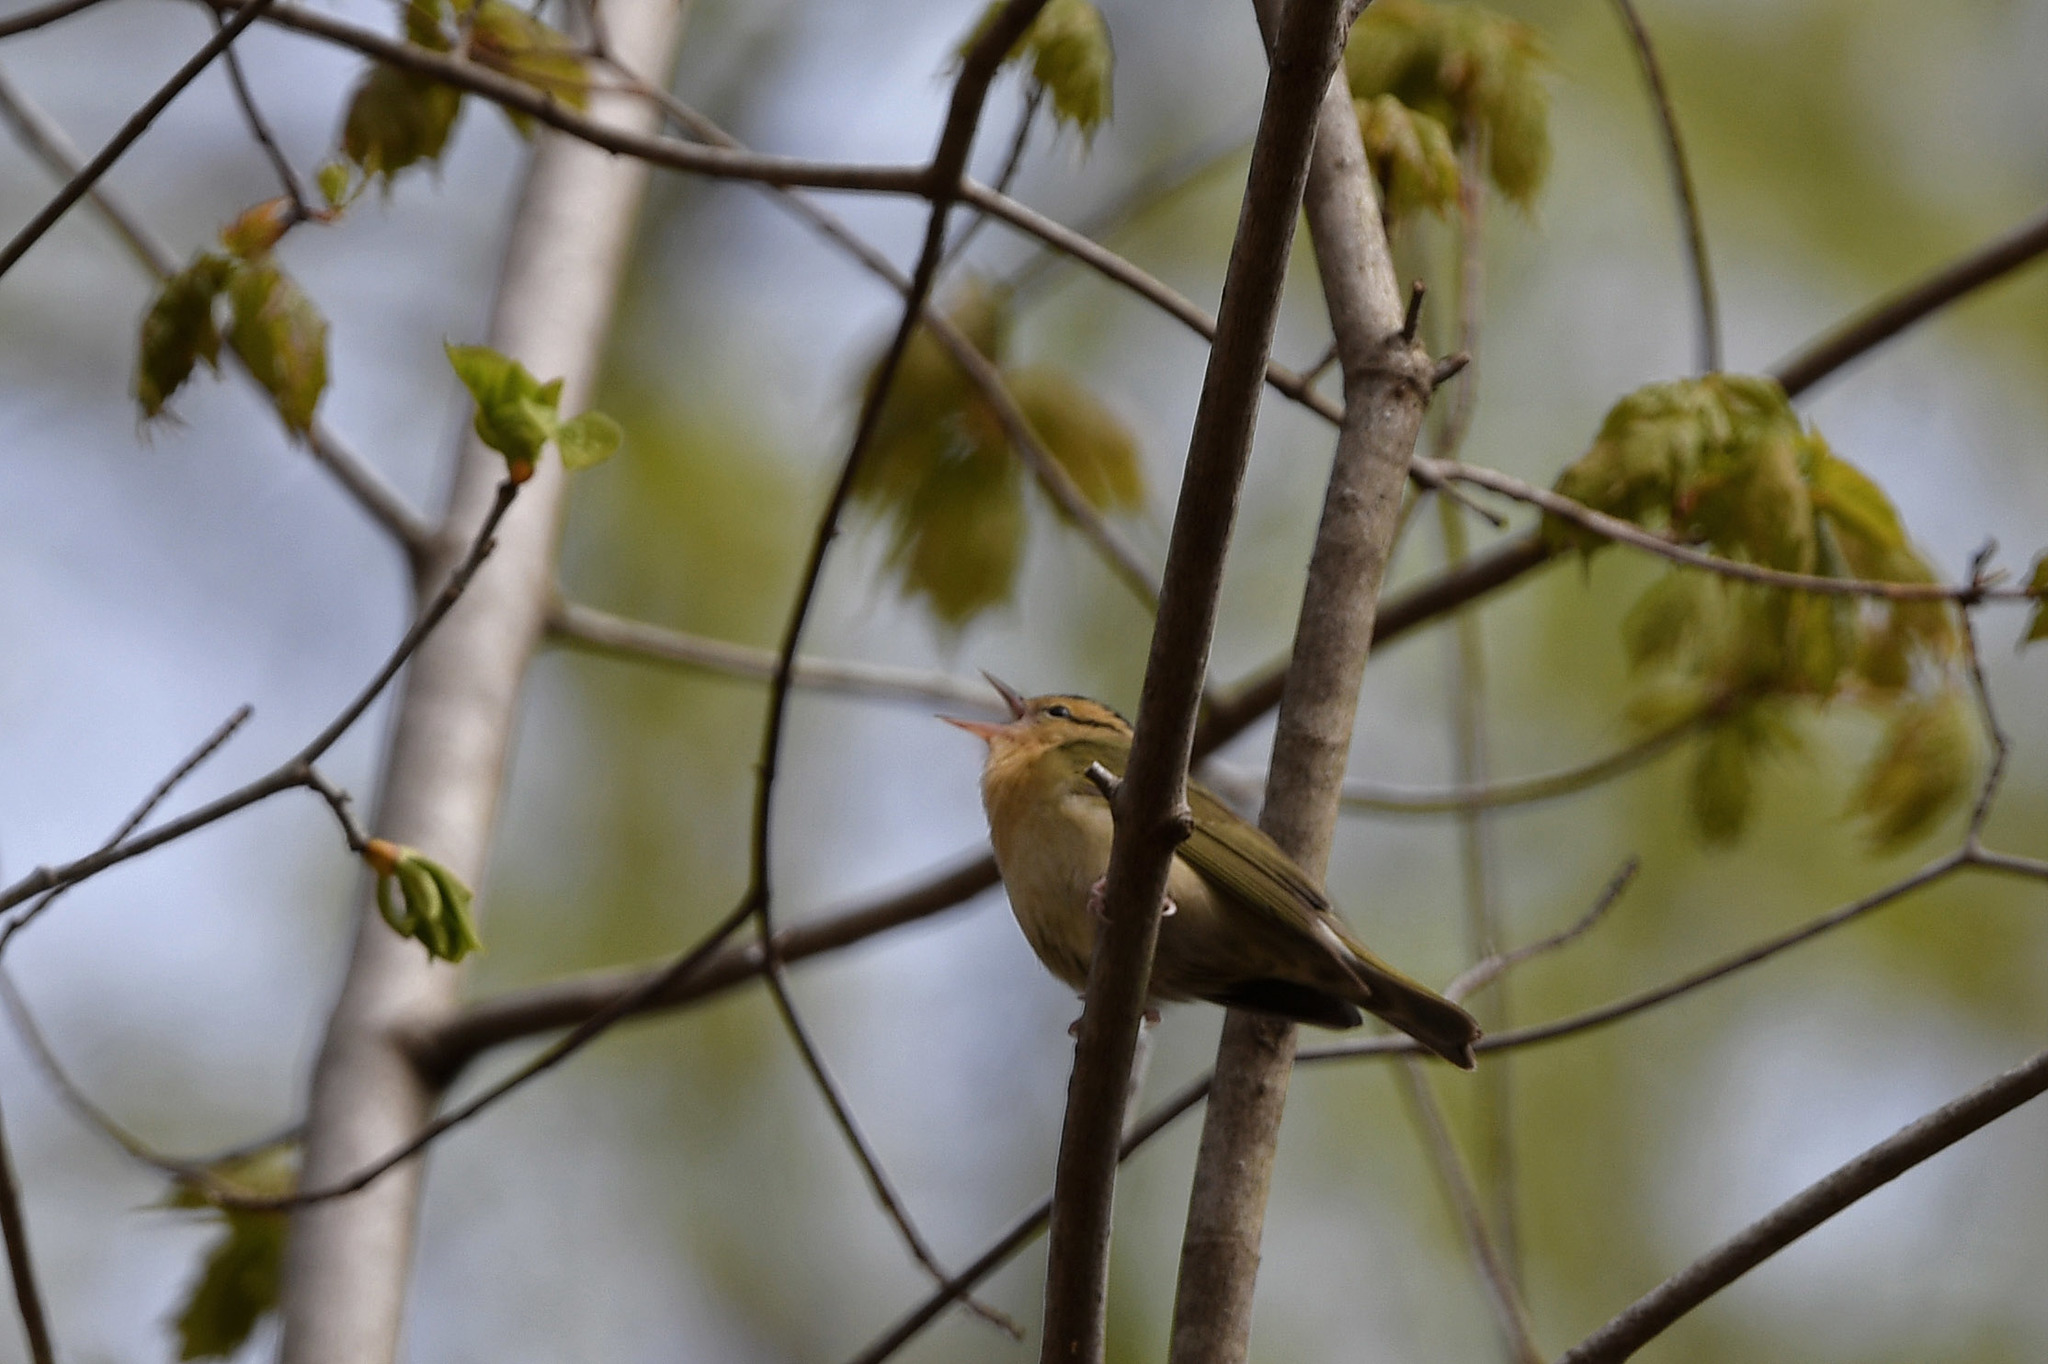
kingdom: Animalia
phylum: Chordata
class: Aves
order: Passeriformes
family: Parulidae
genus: Helmitheros
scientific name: Helmitheros vermivorum
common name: Worm-eating warbler
